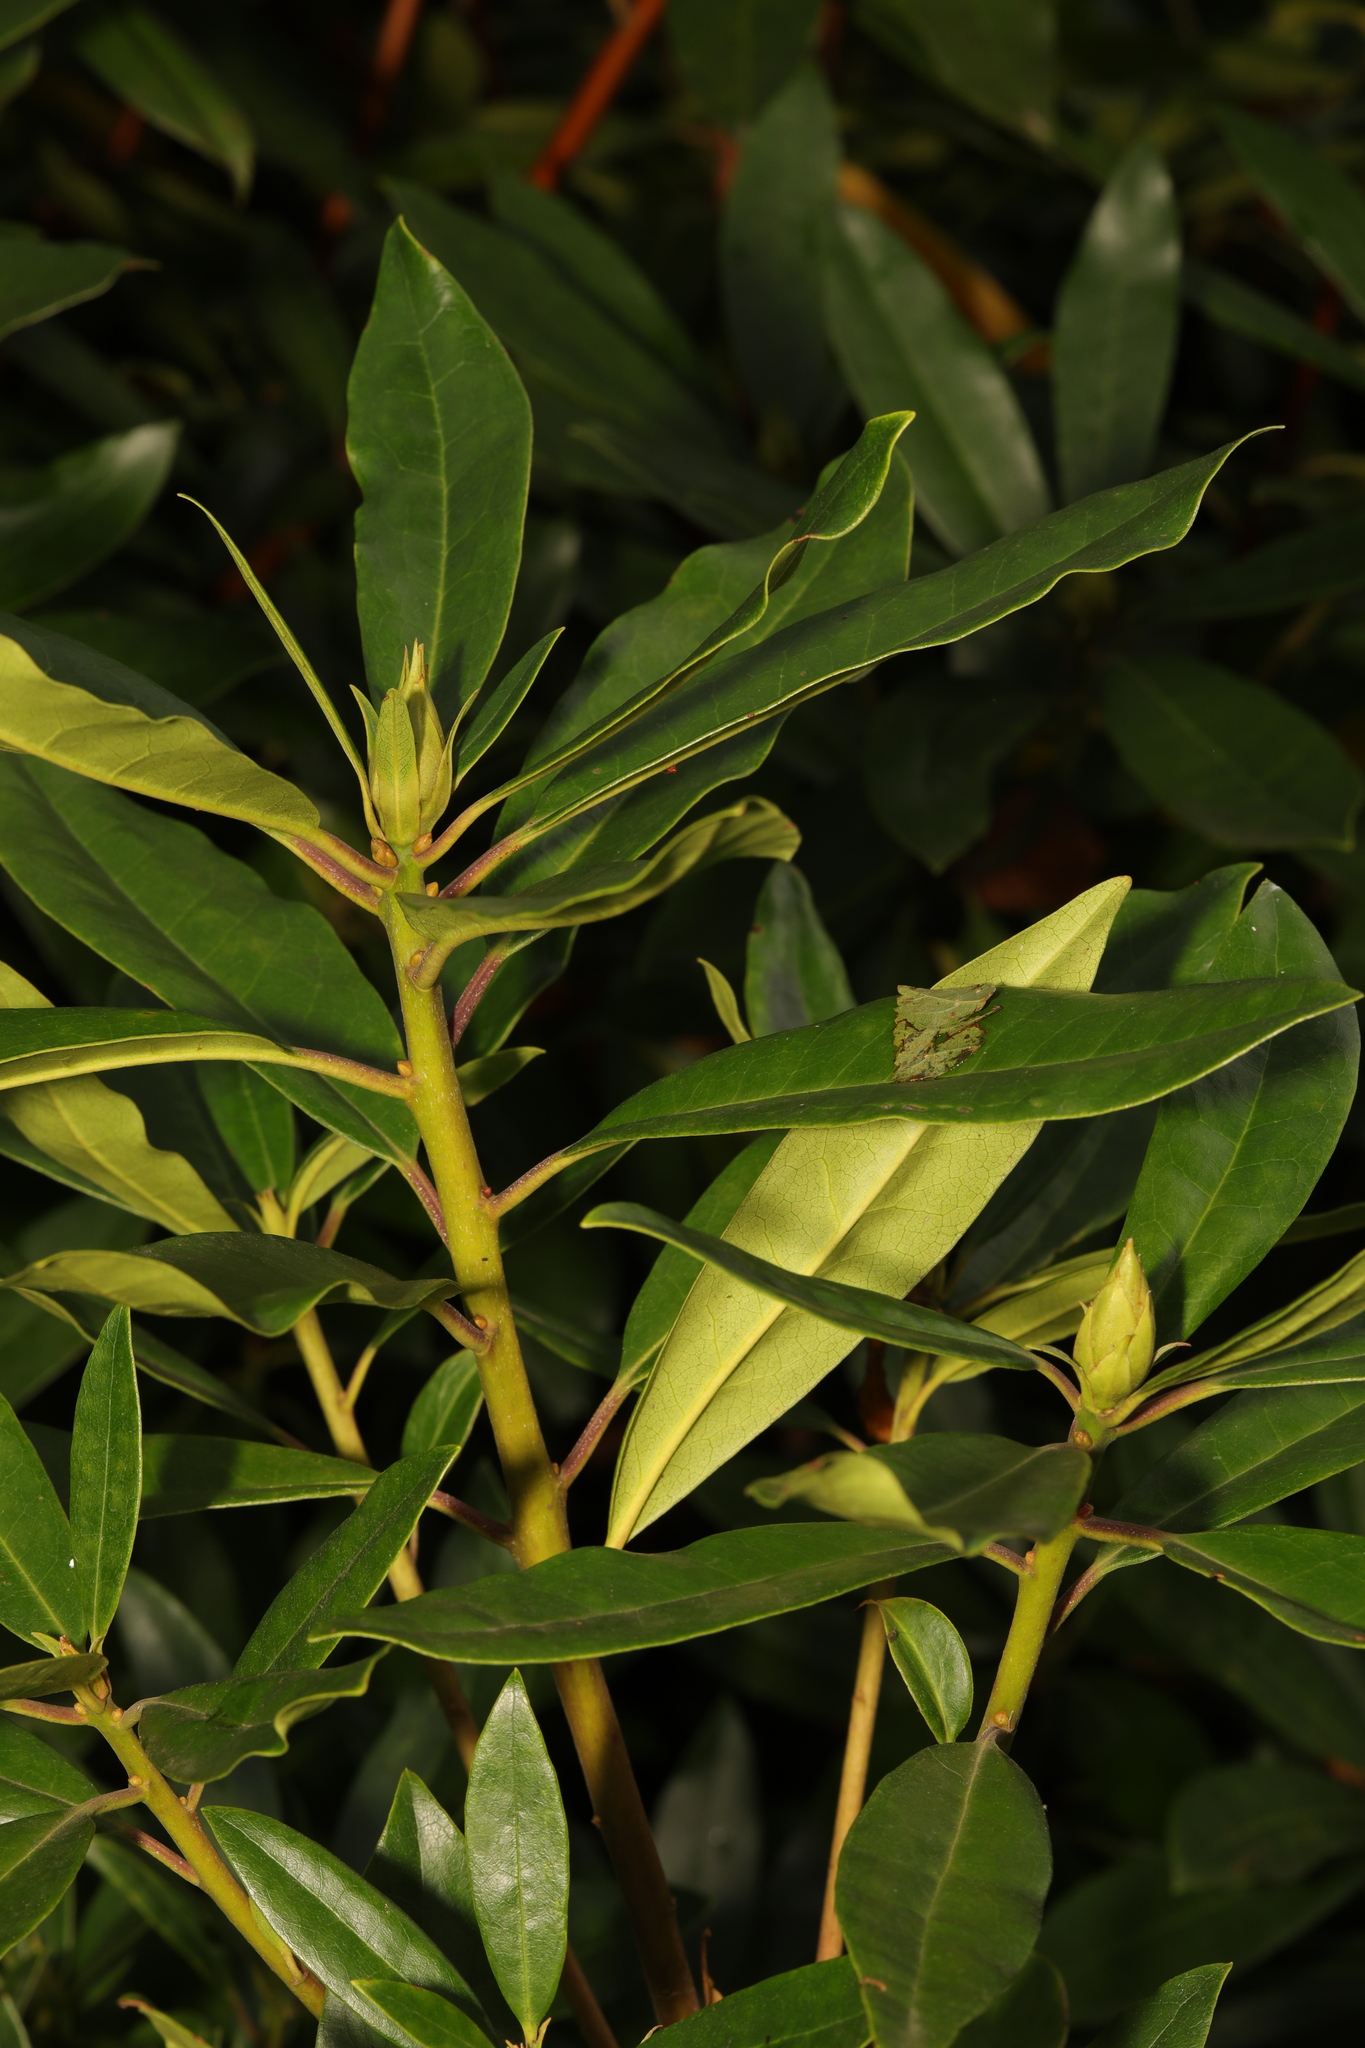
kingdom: Plantae
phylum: Tracheophyta
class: Magnoliopsida
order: Ericales
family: Ericaceae
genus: Rhododendron
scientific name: Rhododendron ponticum
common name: Rhododendron
